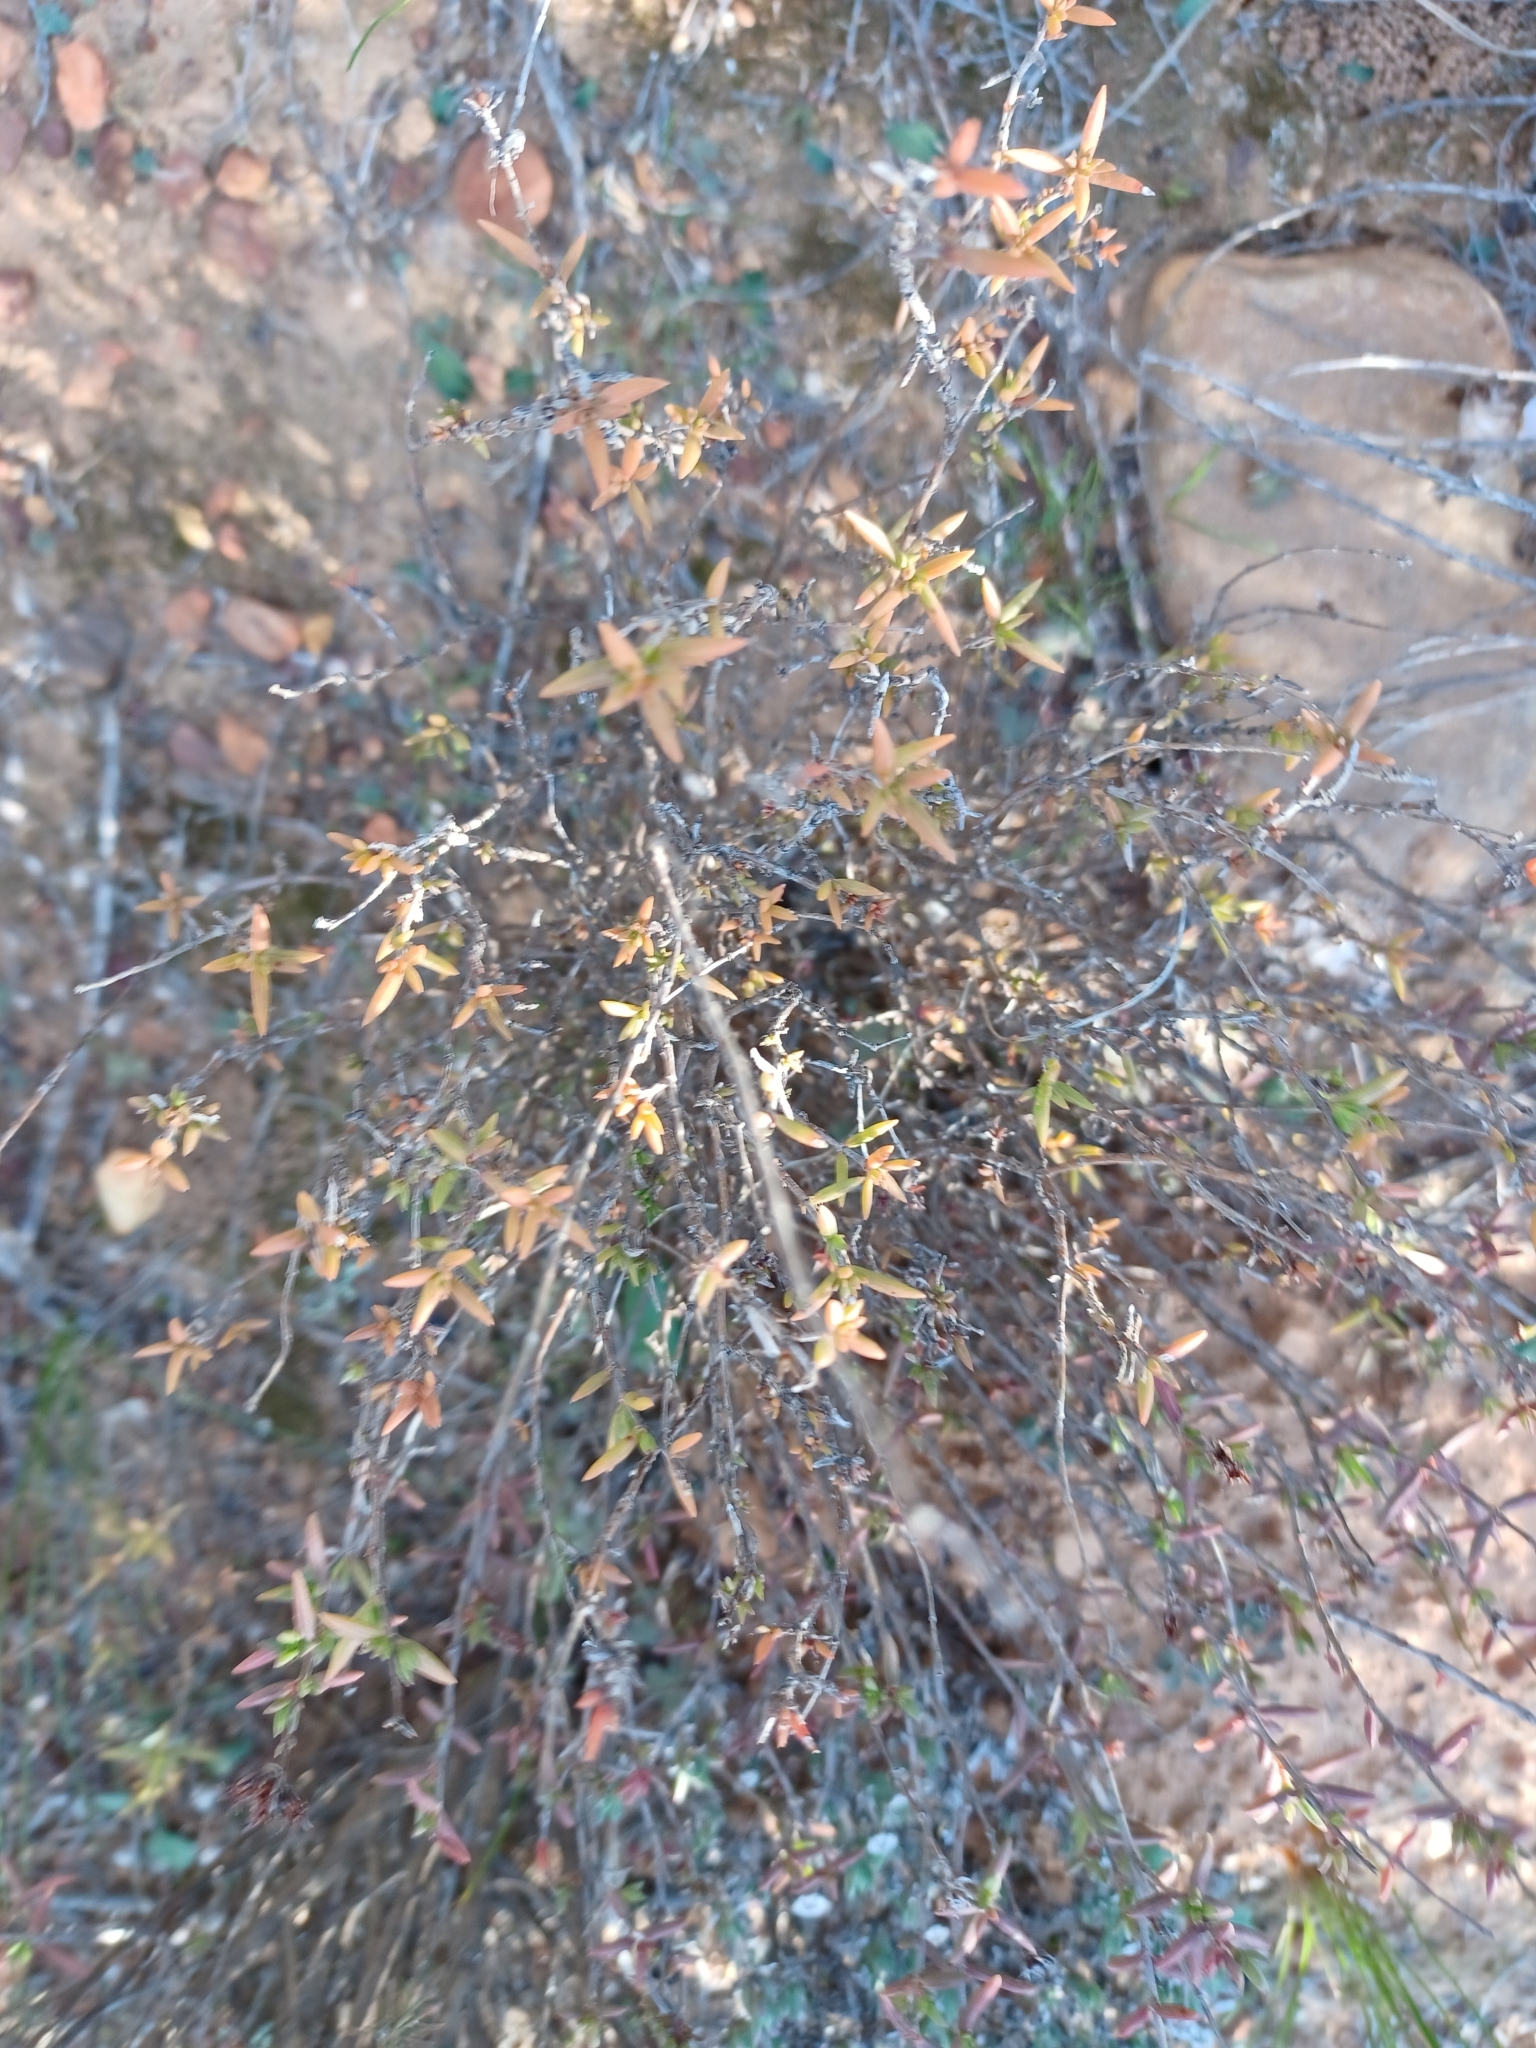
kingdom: Plantae
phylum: Tracheophyta
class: Magnoliopsida
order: Saxifragales
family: Crassulaceae
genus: Crassula
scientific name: Crassula tetragona
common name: Pygmyweed
